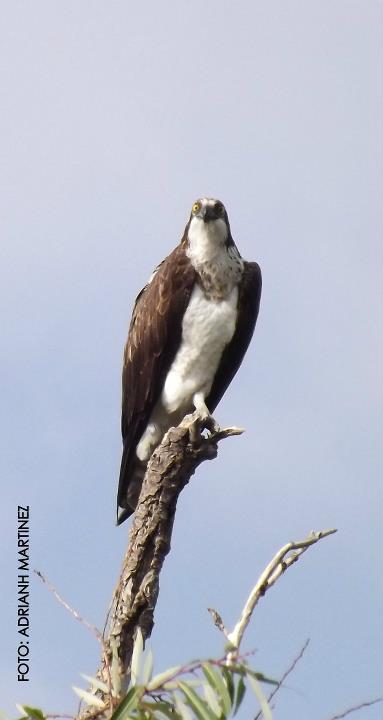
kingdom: Animalia
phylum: Chordata
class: Aves
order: Accipitriformes
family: Pandionidae
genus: Pandion
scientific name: Pandion haliaetus
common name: Osprey
